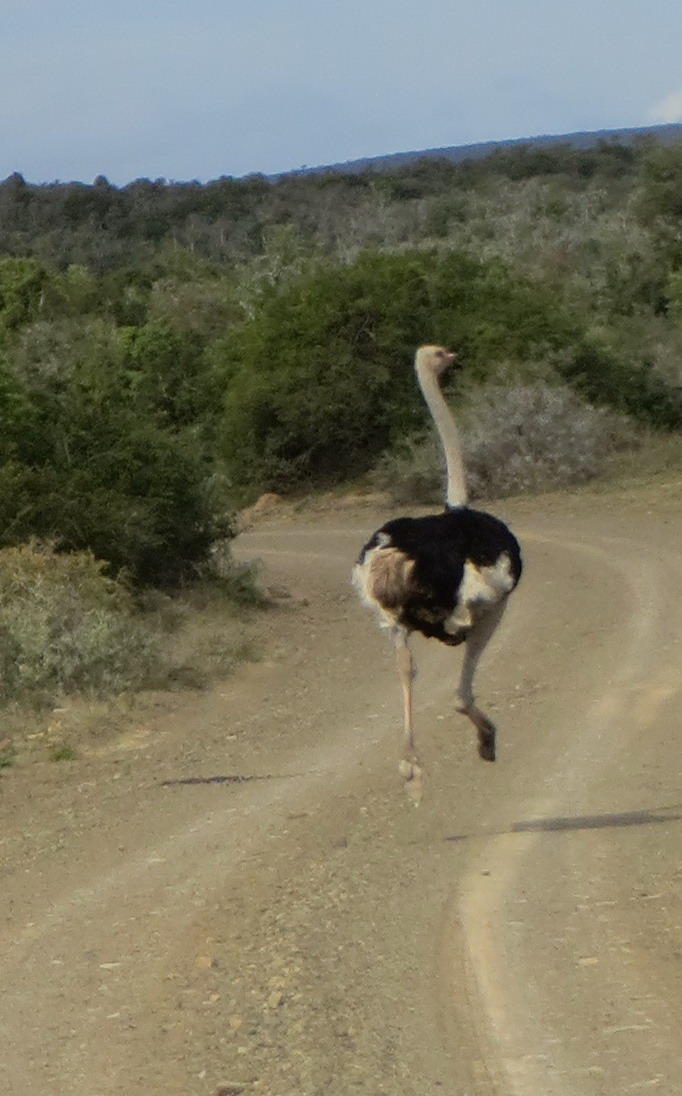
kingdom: Animalia
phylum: Chordata
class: Aves
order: Struthioniformes
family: Struthionidae
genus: Struthio
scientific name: Struthio camelus
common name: Common ostrich
